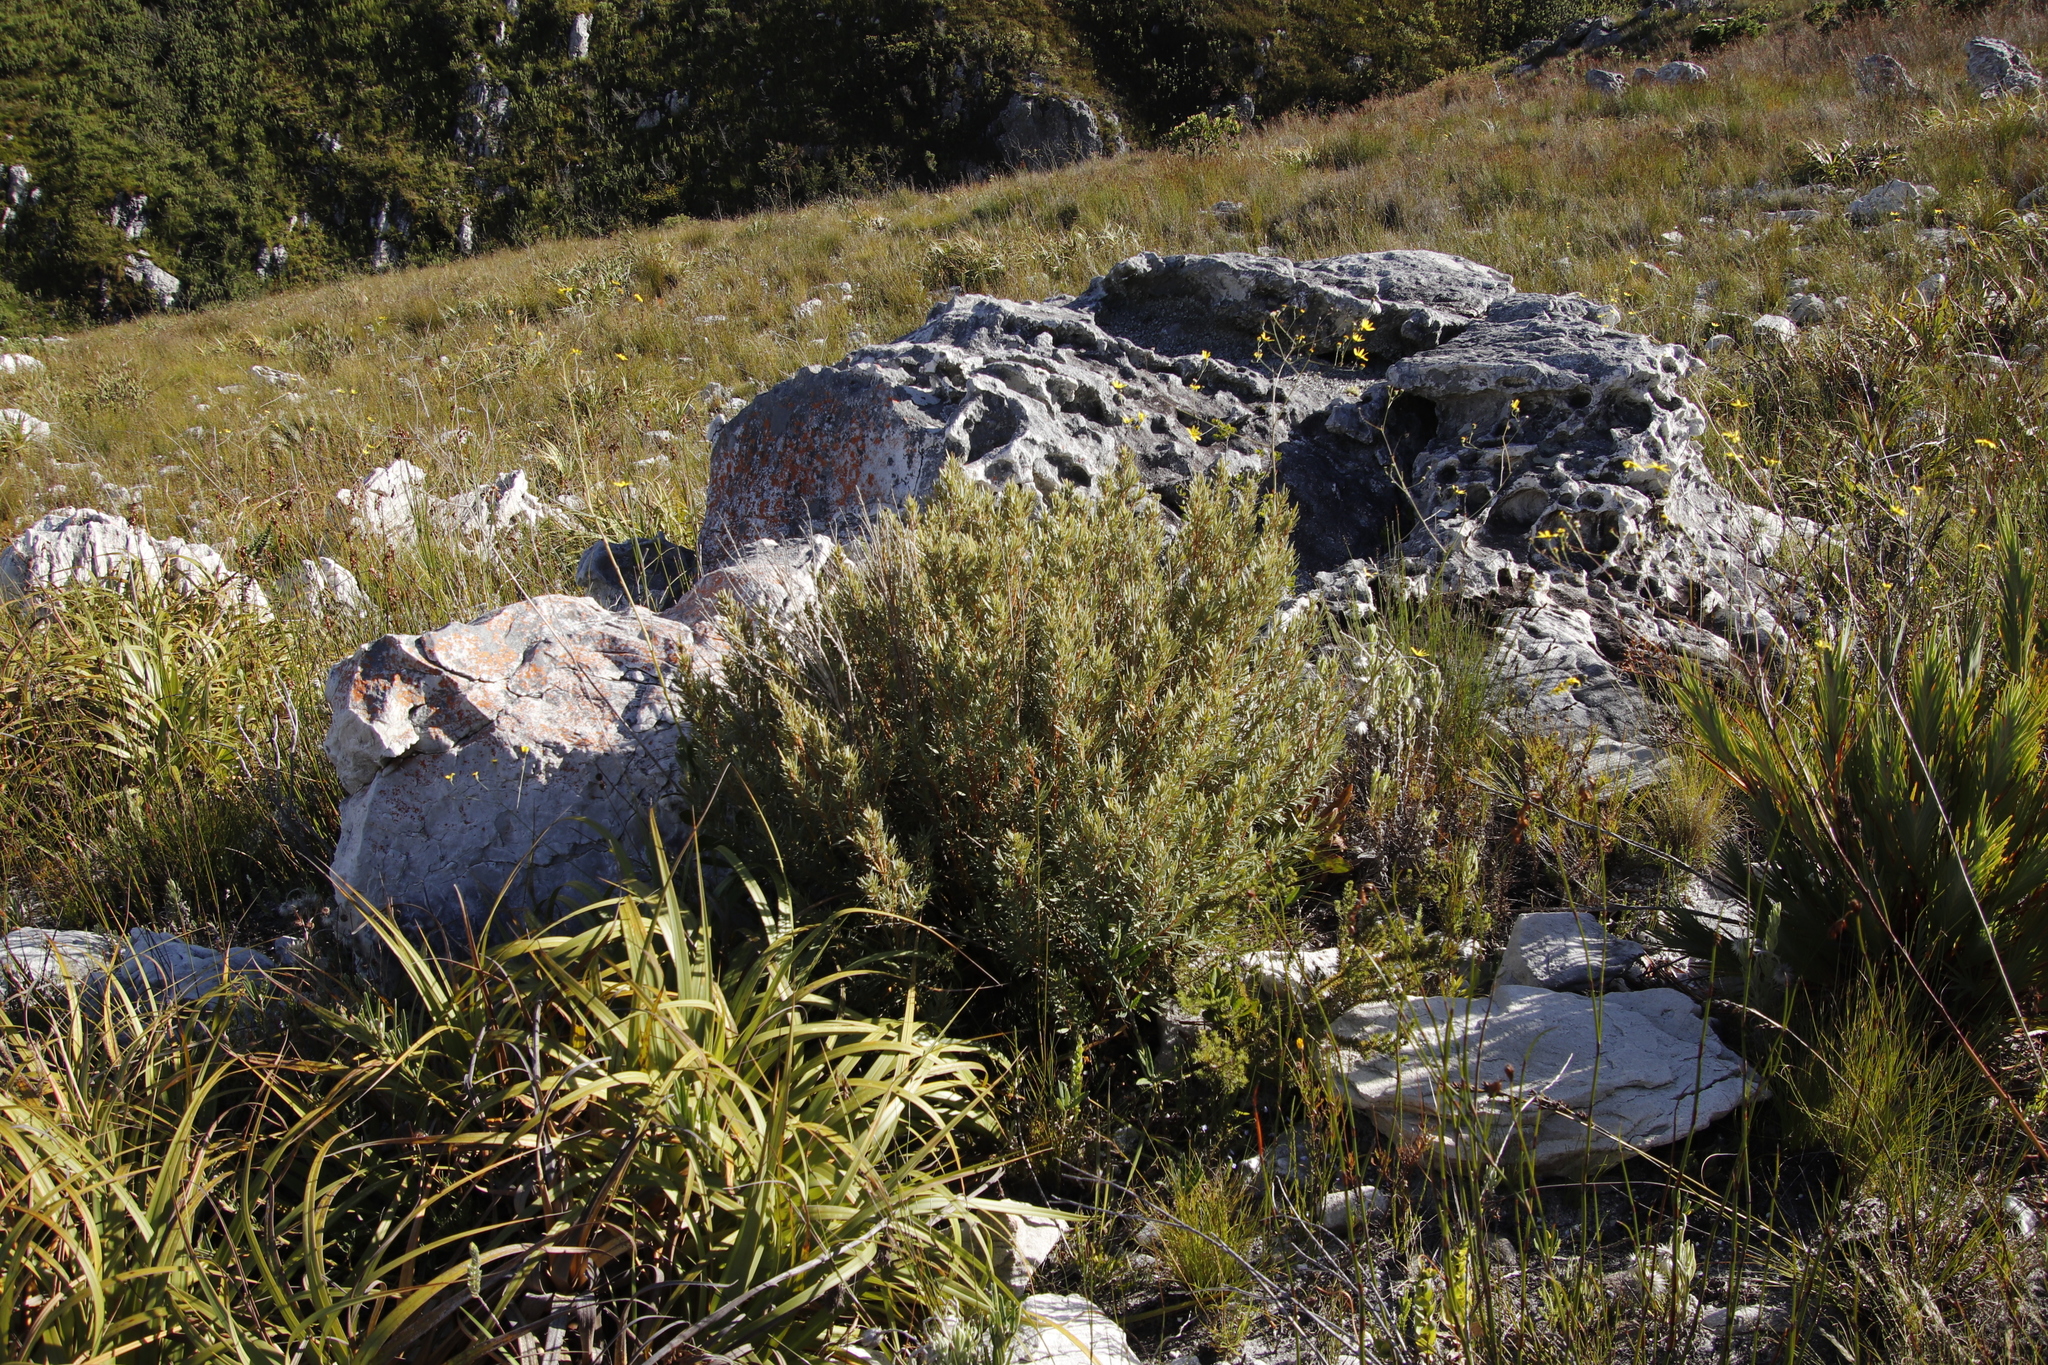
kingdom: Plantae
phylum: Tracheophyta
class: Magnoliopsida
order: Cornales
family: Grubbiaceae
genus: Grubbia
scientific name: Grubbia tomentosa
